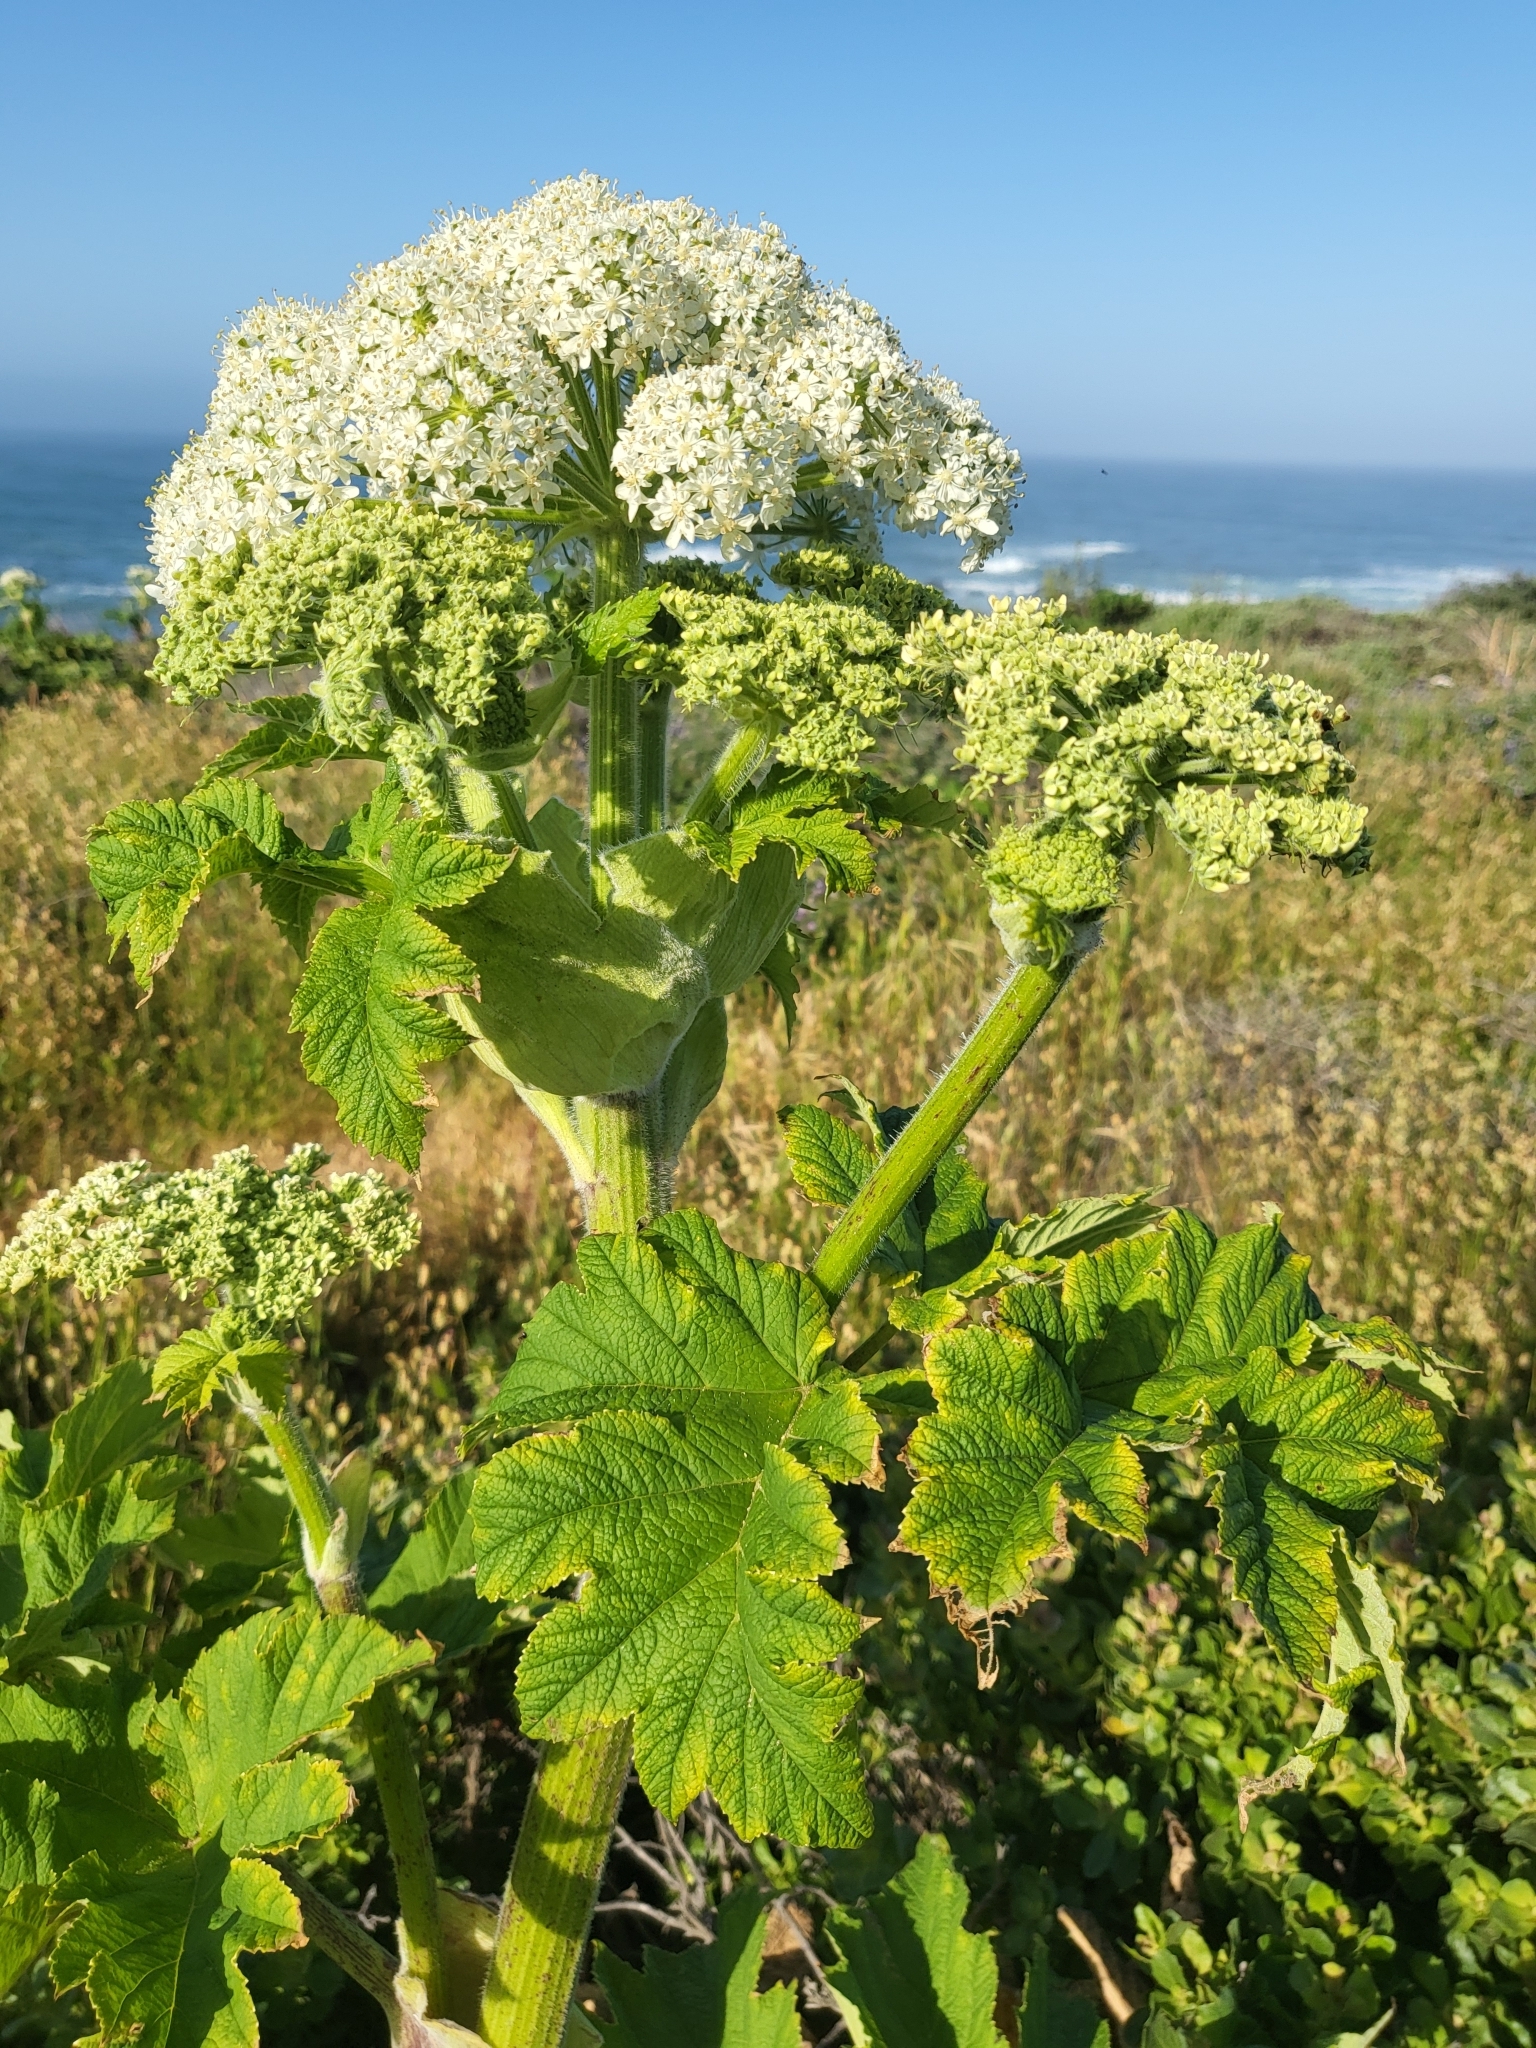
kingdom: Plantae
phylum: Tracheophyta
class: Magnoliopsida
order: Apiales
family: Apiaceae
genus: Heracleum
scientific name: Heracleum maximum
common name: American cow parsnip
